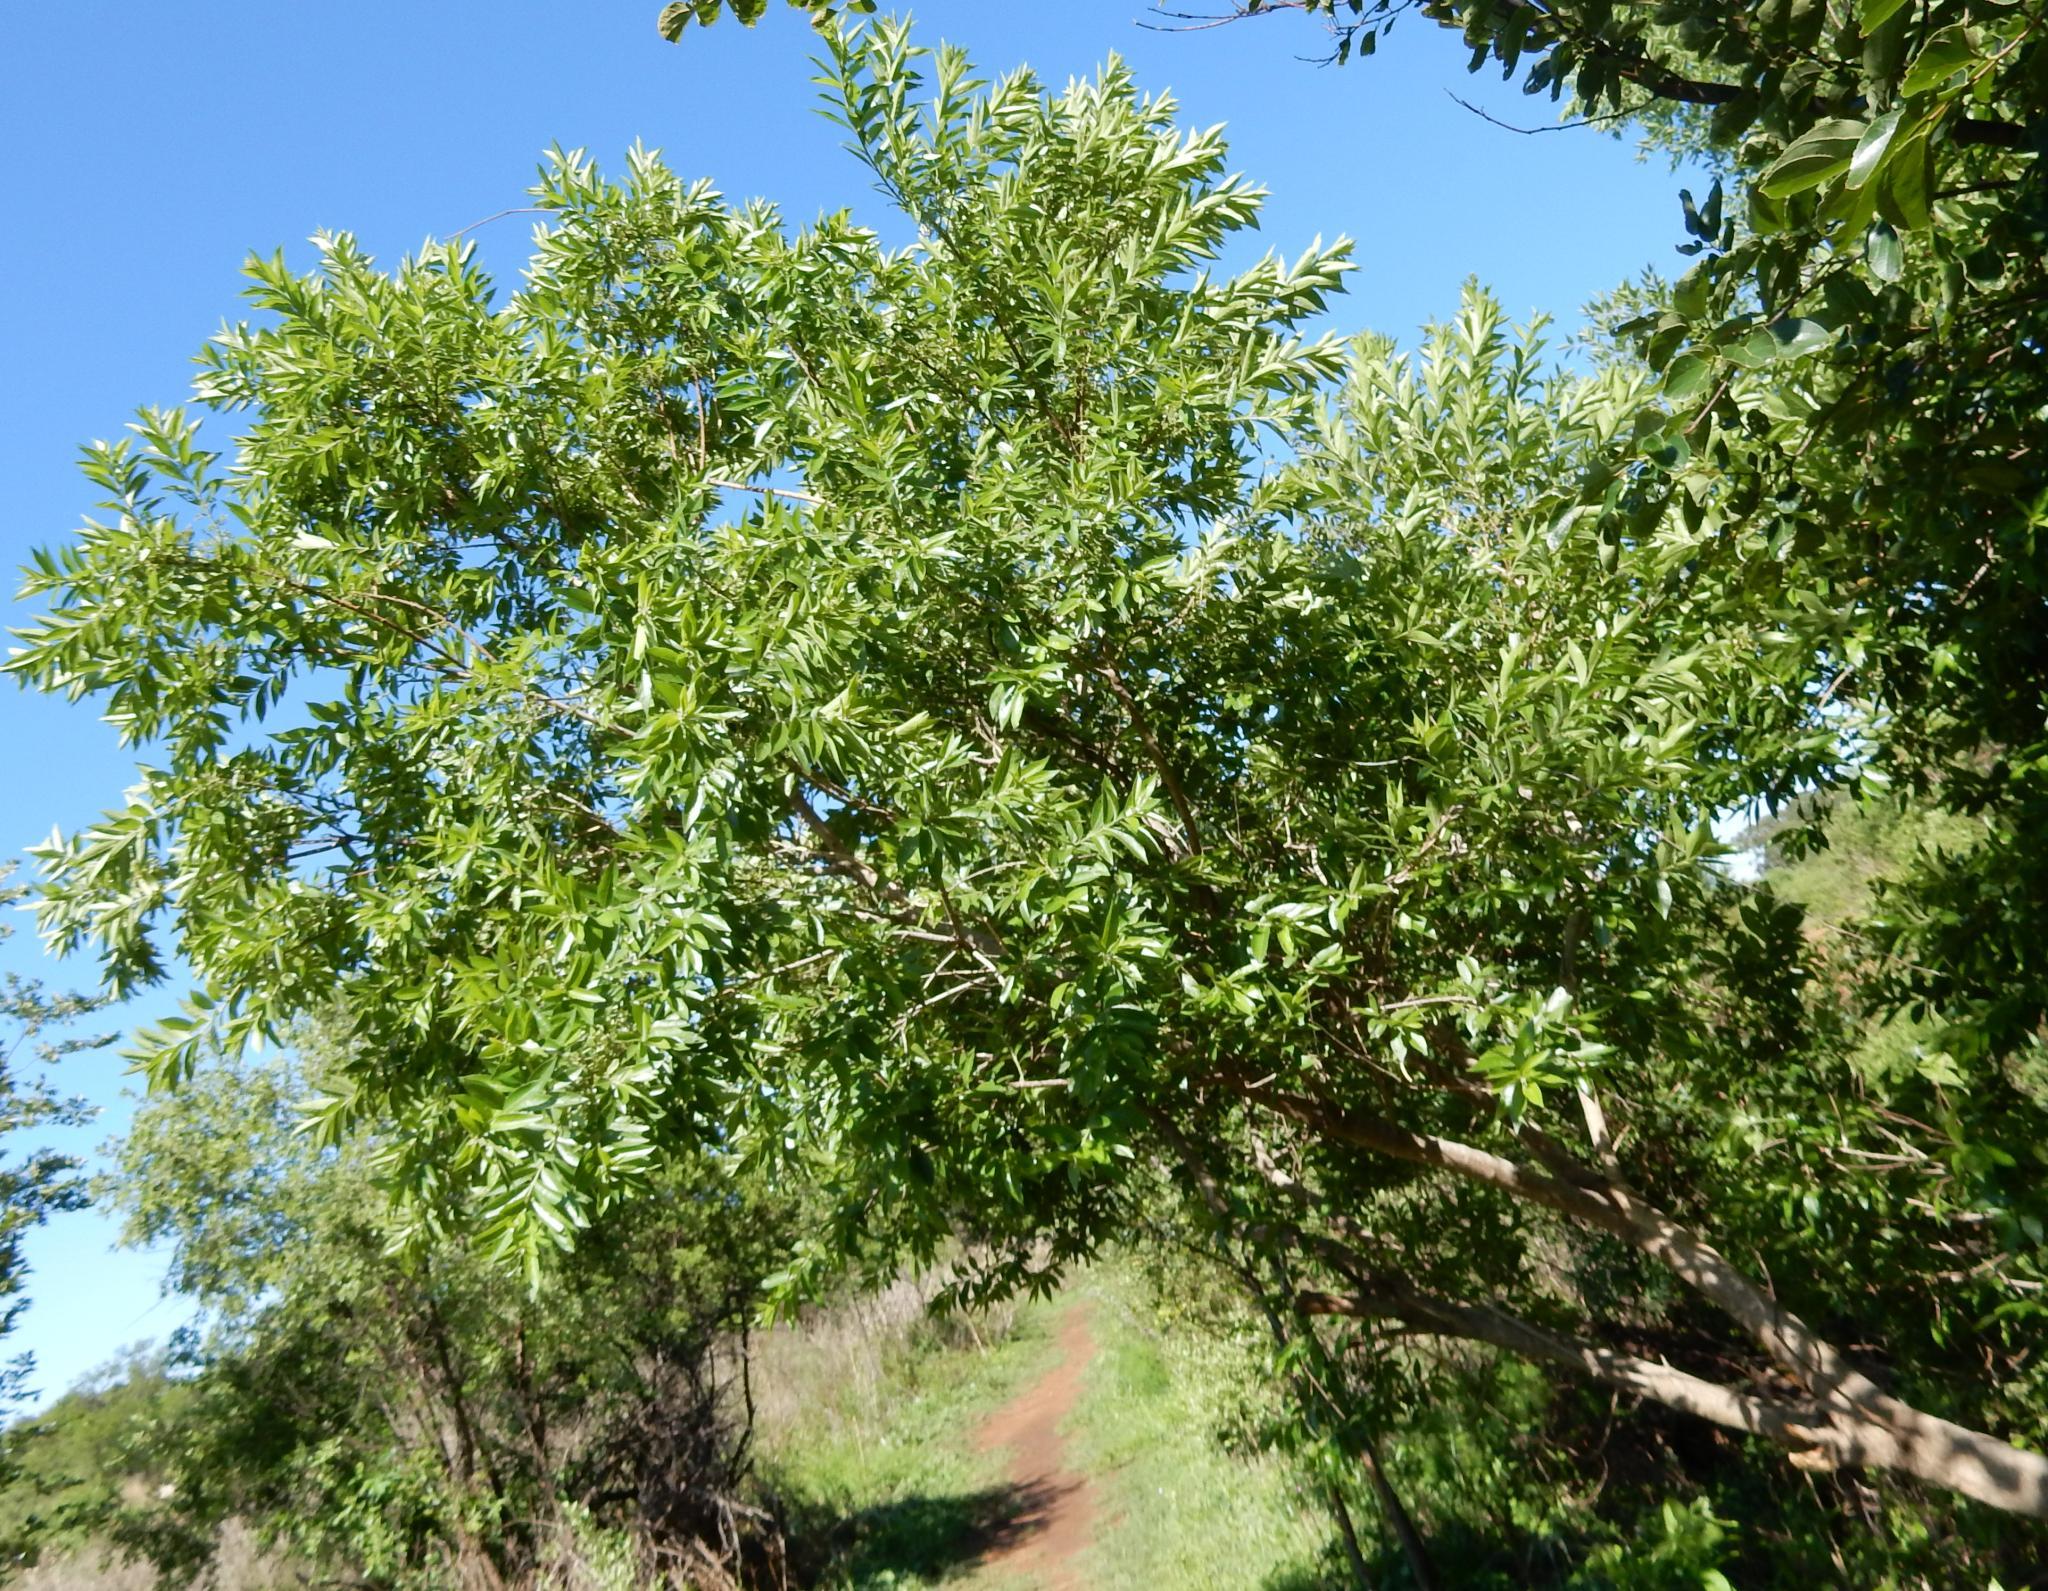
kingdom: Plantae
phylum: Tracheophyta
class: Magnoliopsida
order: Myrtales
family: Combretaceae
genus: Combretum
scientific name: Combretum erythrophyllum
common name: Bush-willow
